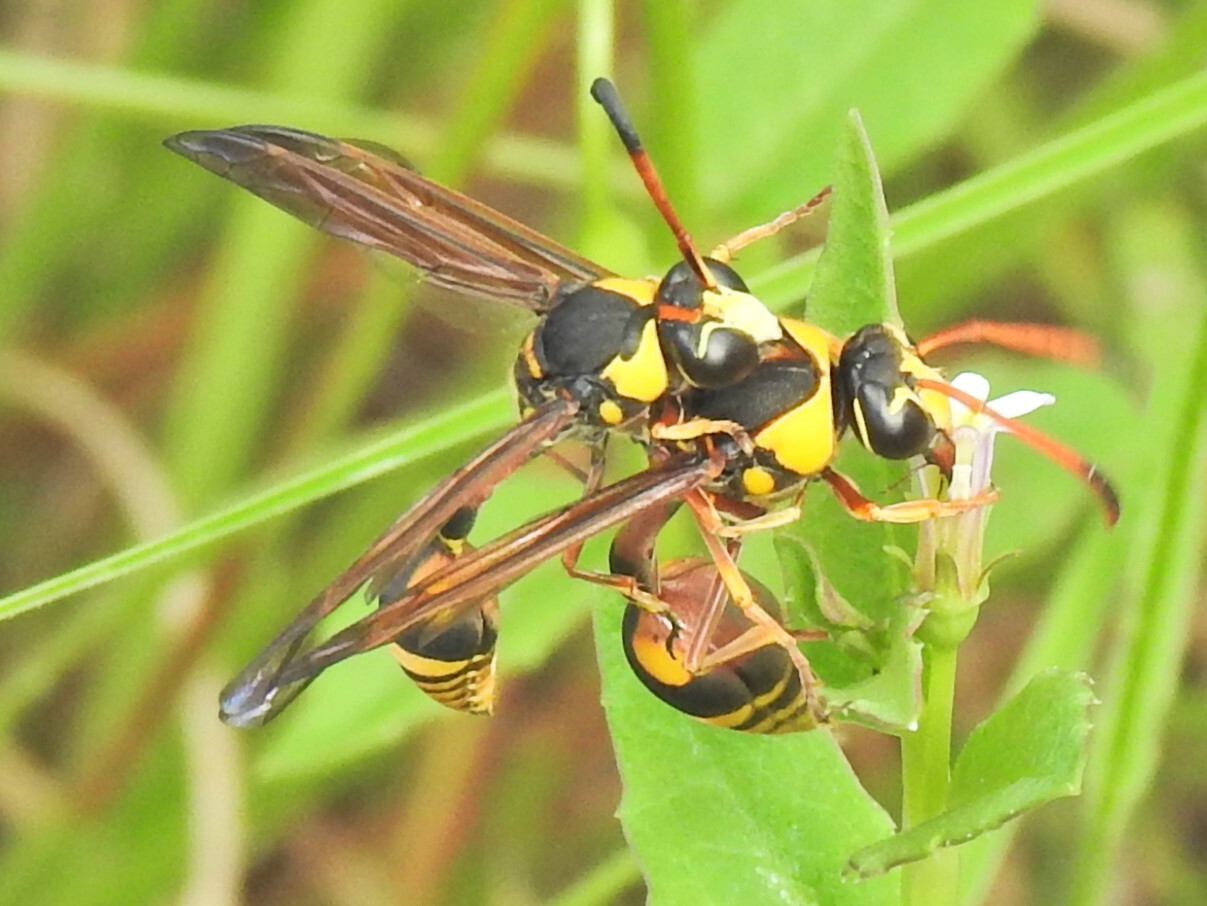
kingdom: Animalia
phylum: Arthropoda
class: Insecta
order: Hymenoptera
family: Eumenidae
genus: Delta
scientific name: Delta campaniforme
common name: Yellow and black potter wasp
